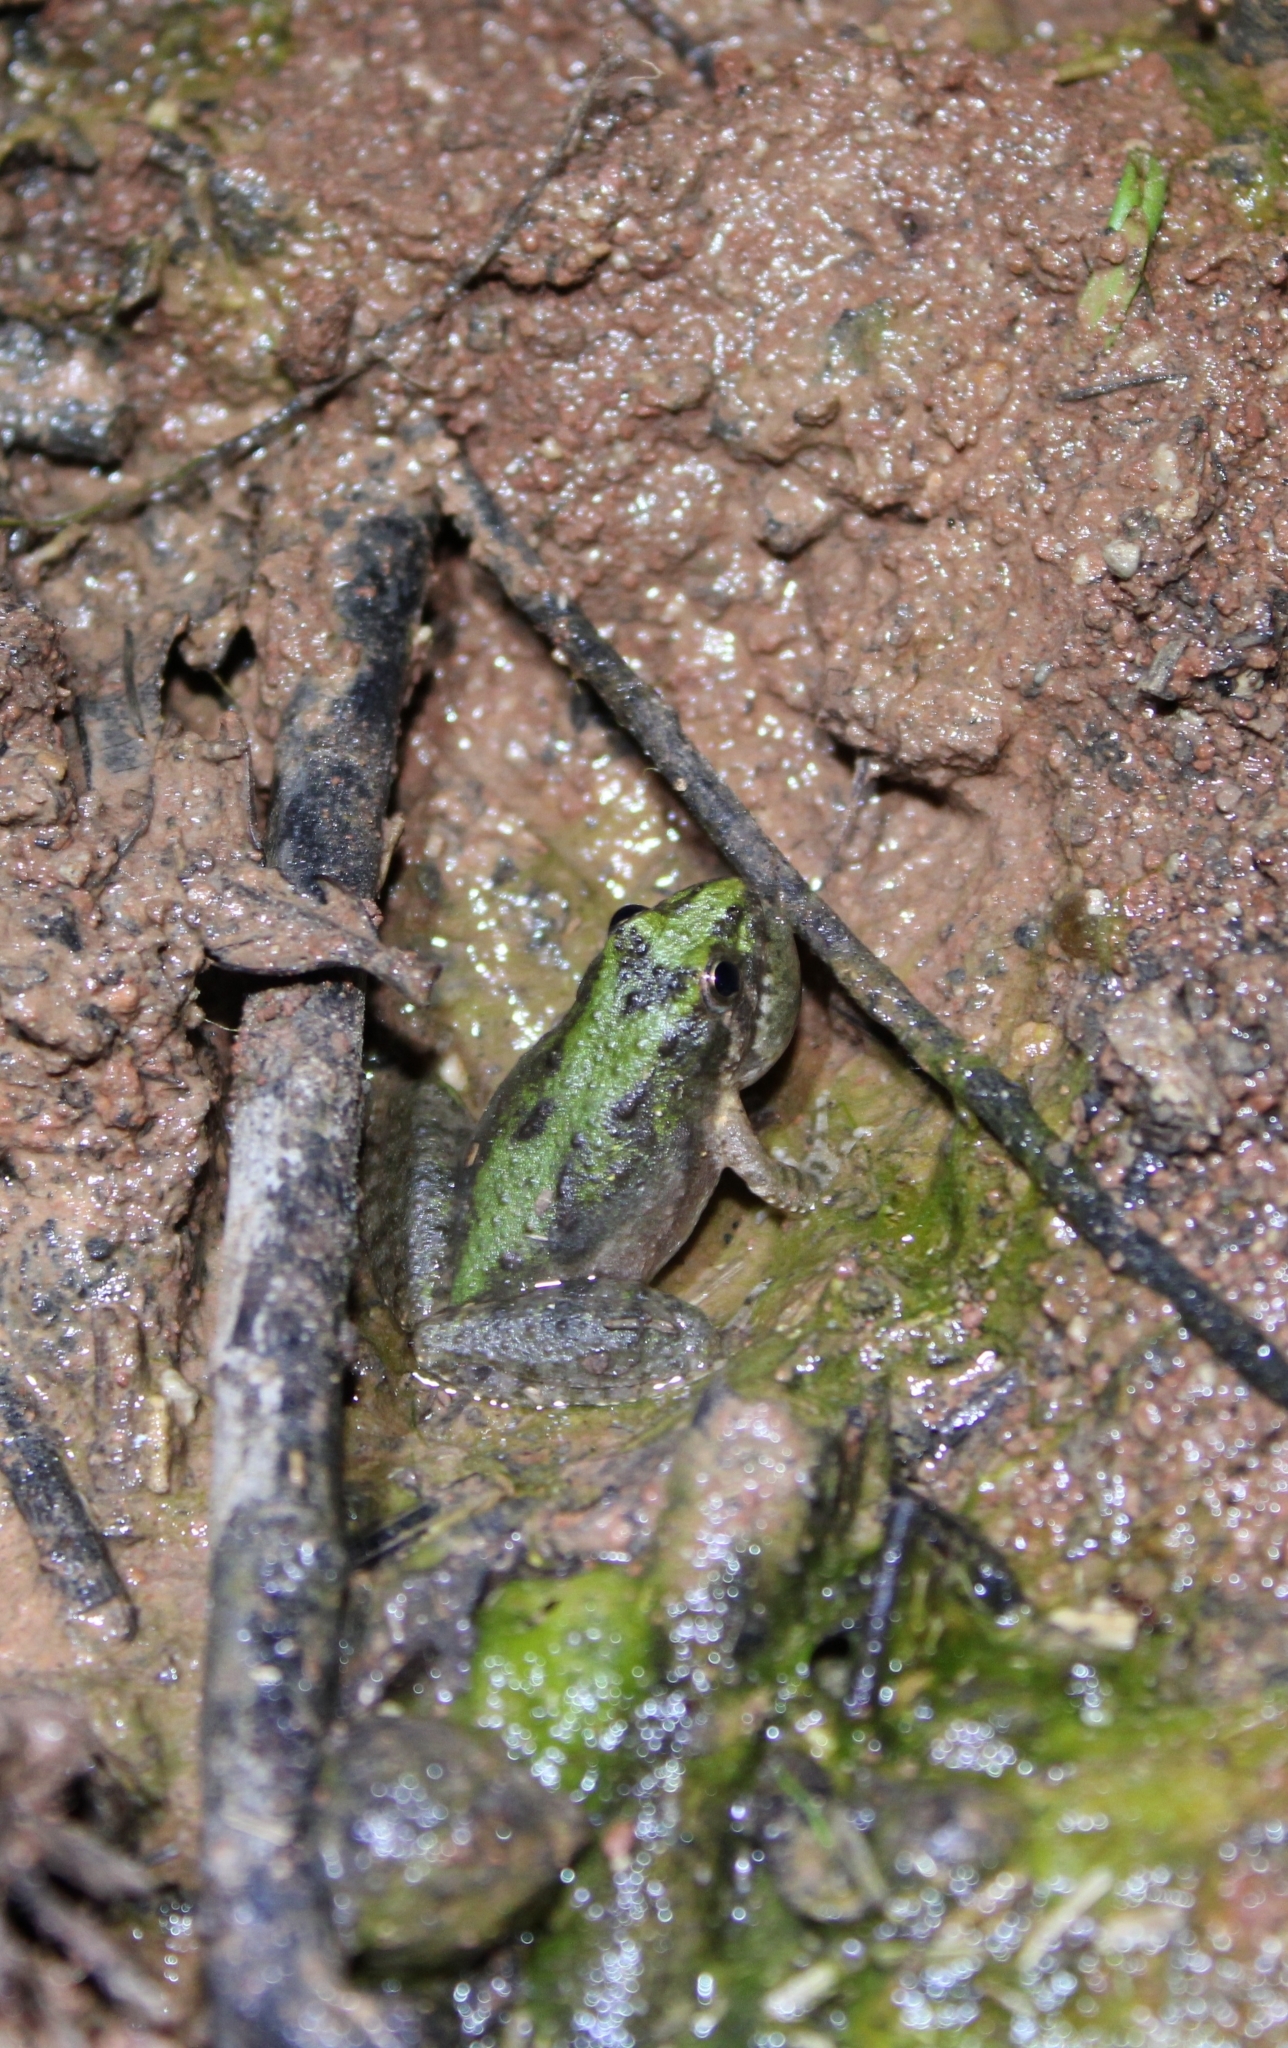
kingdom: Animalia
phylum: Chordata
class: Amphibia
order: Anura
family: Hylidae
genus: Acris
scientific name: Acris blanchardi
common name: Blanchard's cricket frog
